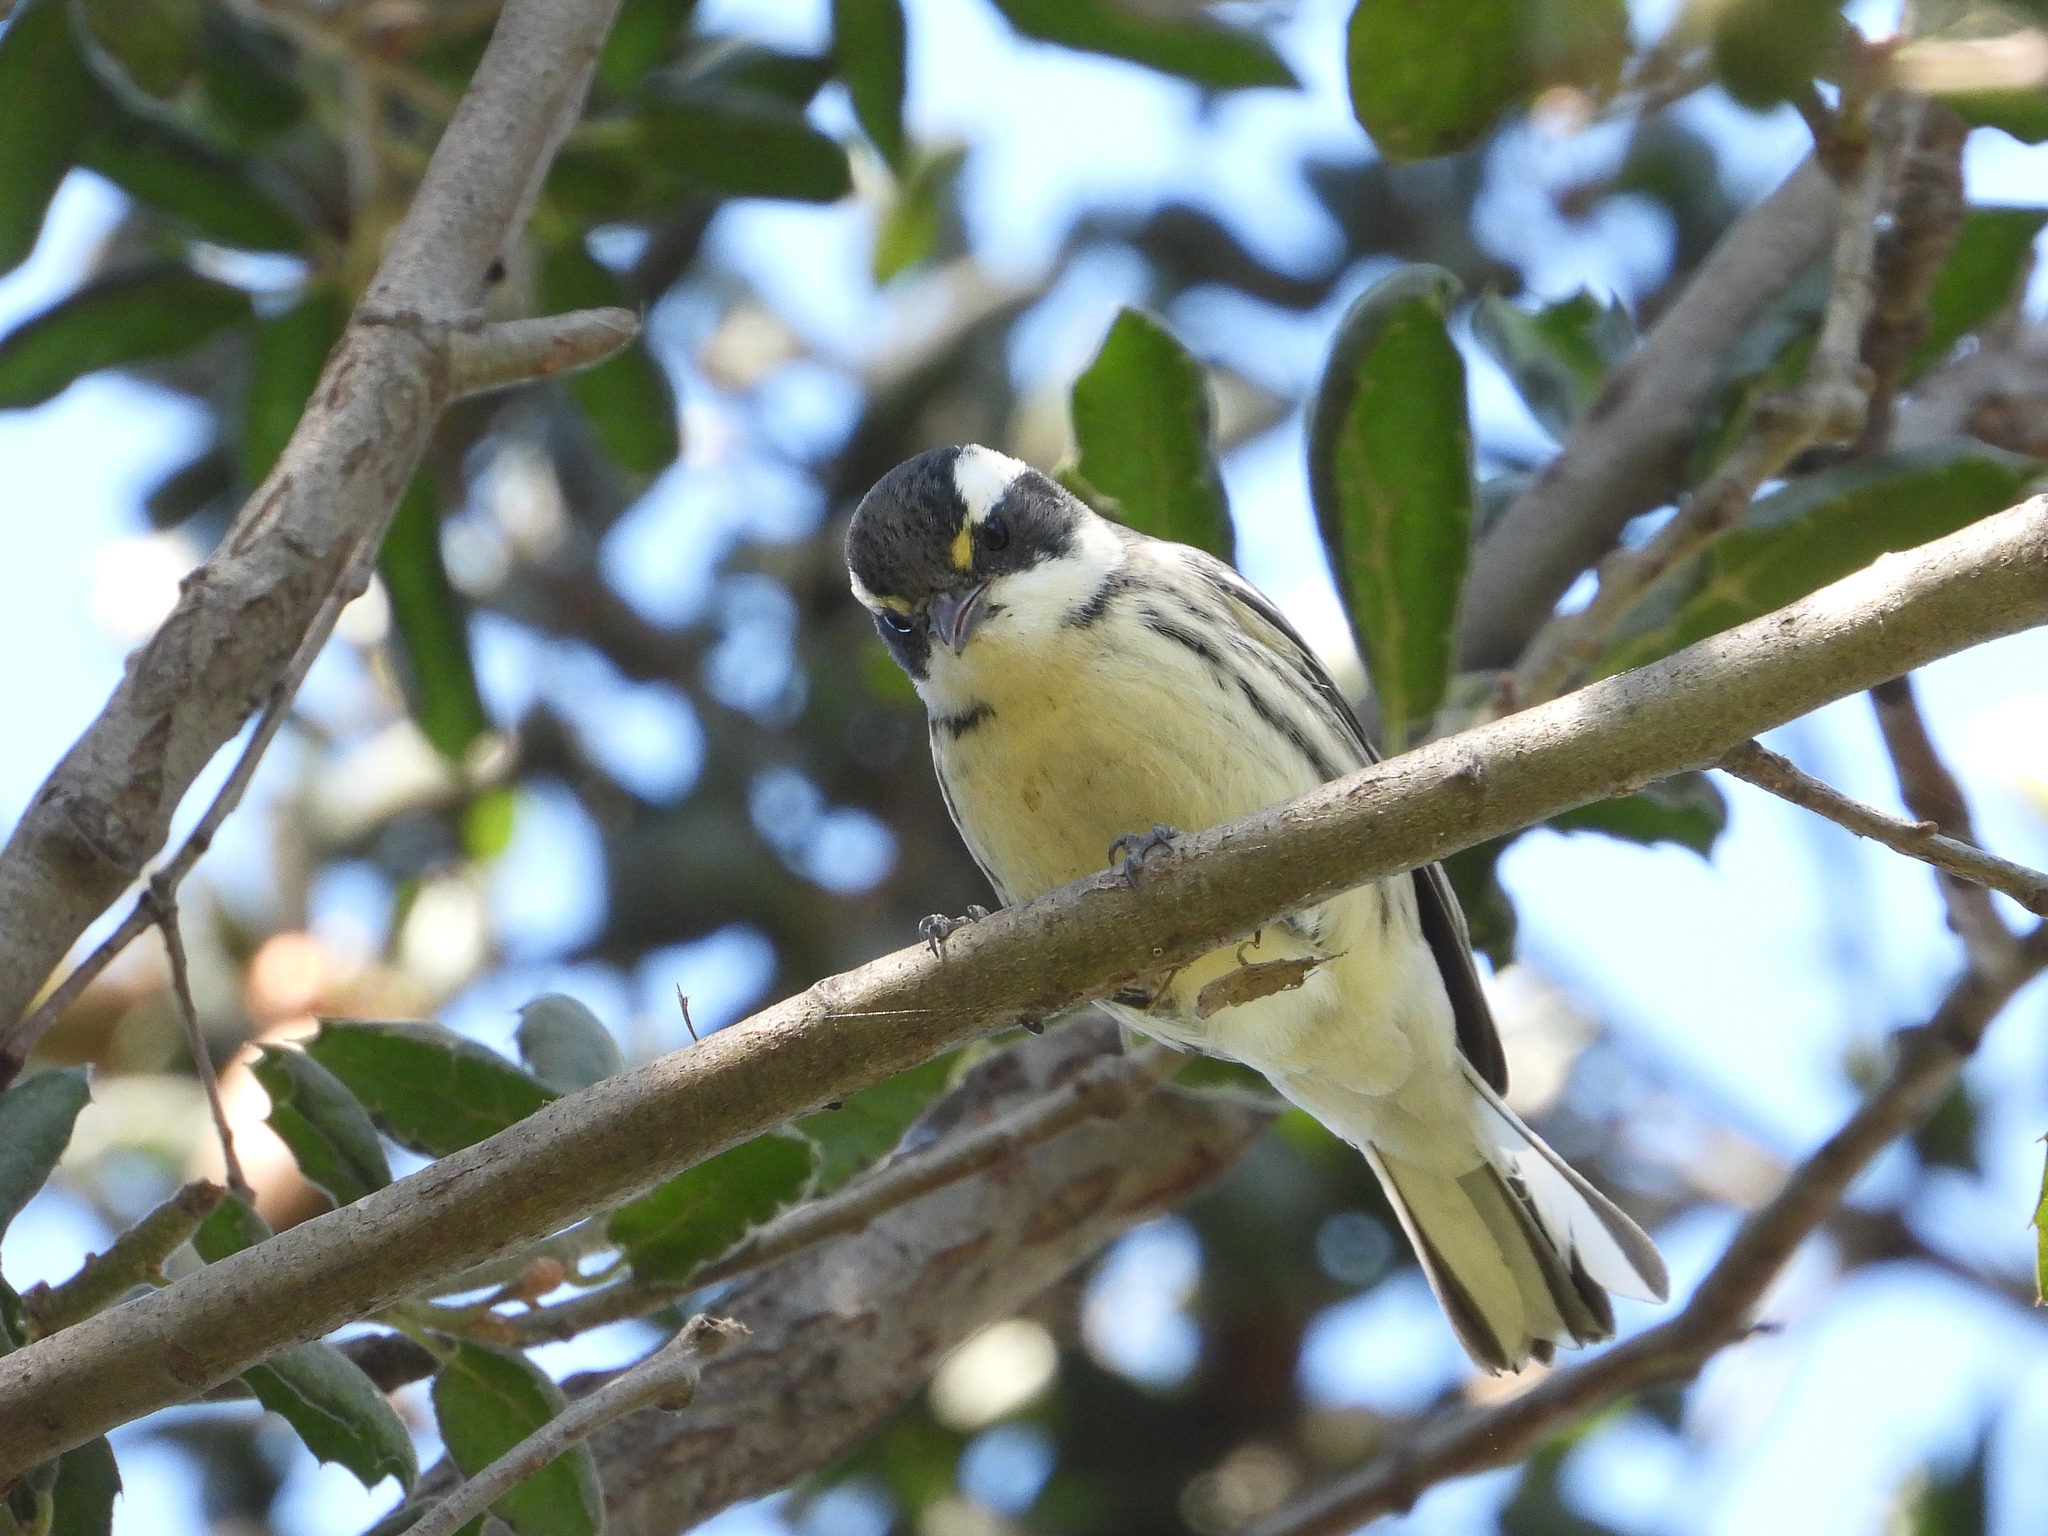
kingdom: Animalia
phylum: Chordata
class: Aves
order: Passeriformes
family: Parulidae
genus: Setophaga
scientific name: Setophaga nigrescens
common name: Black-throated gray warbler
